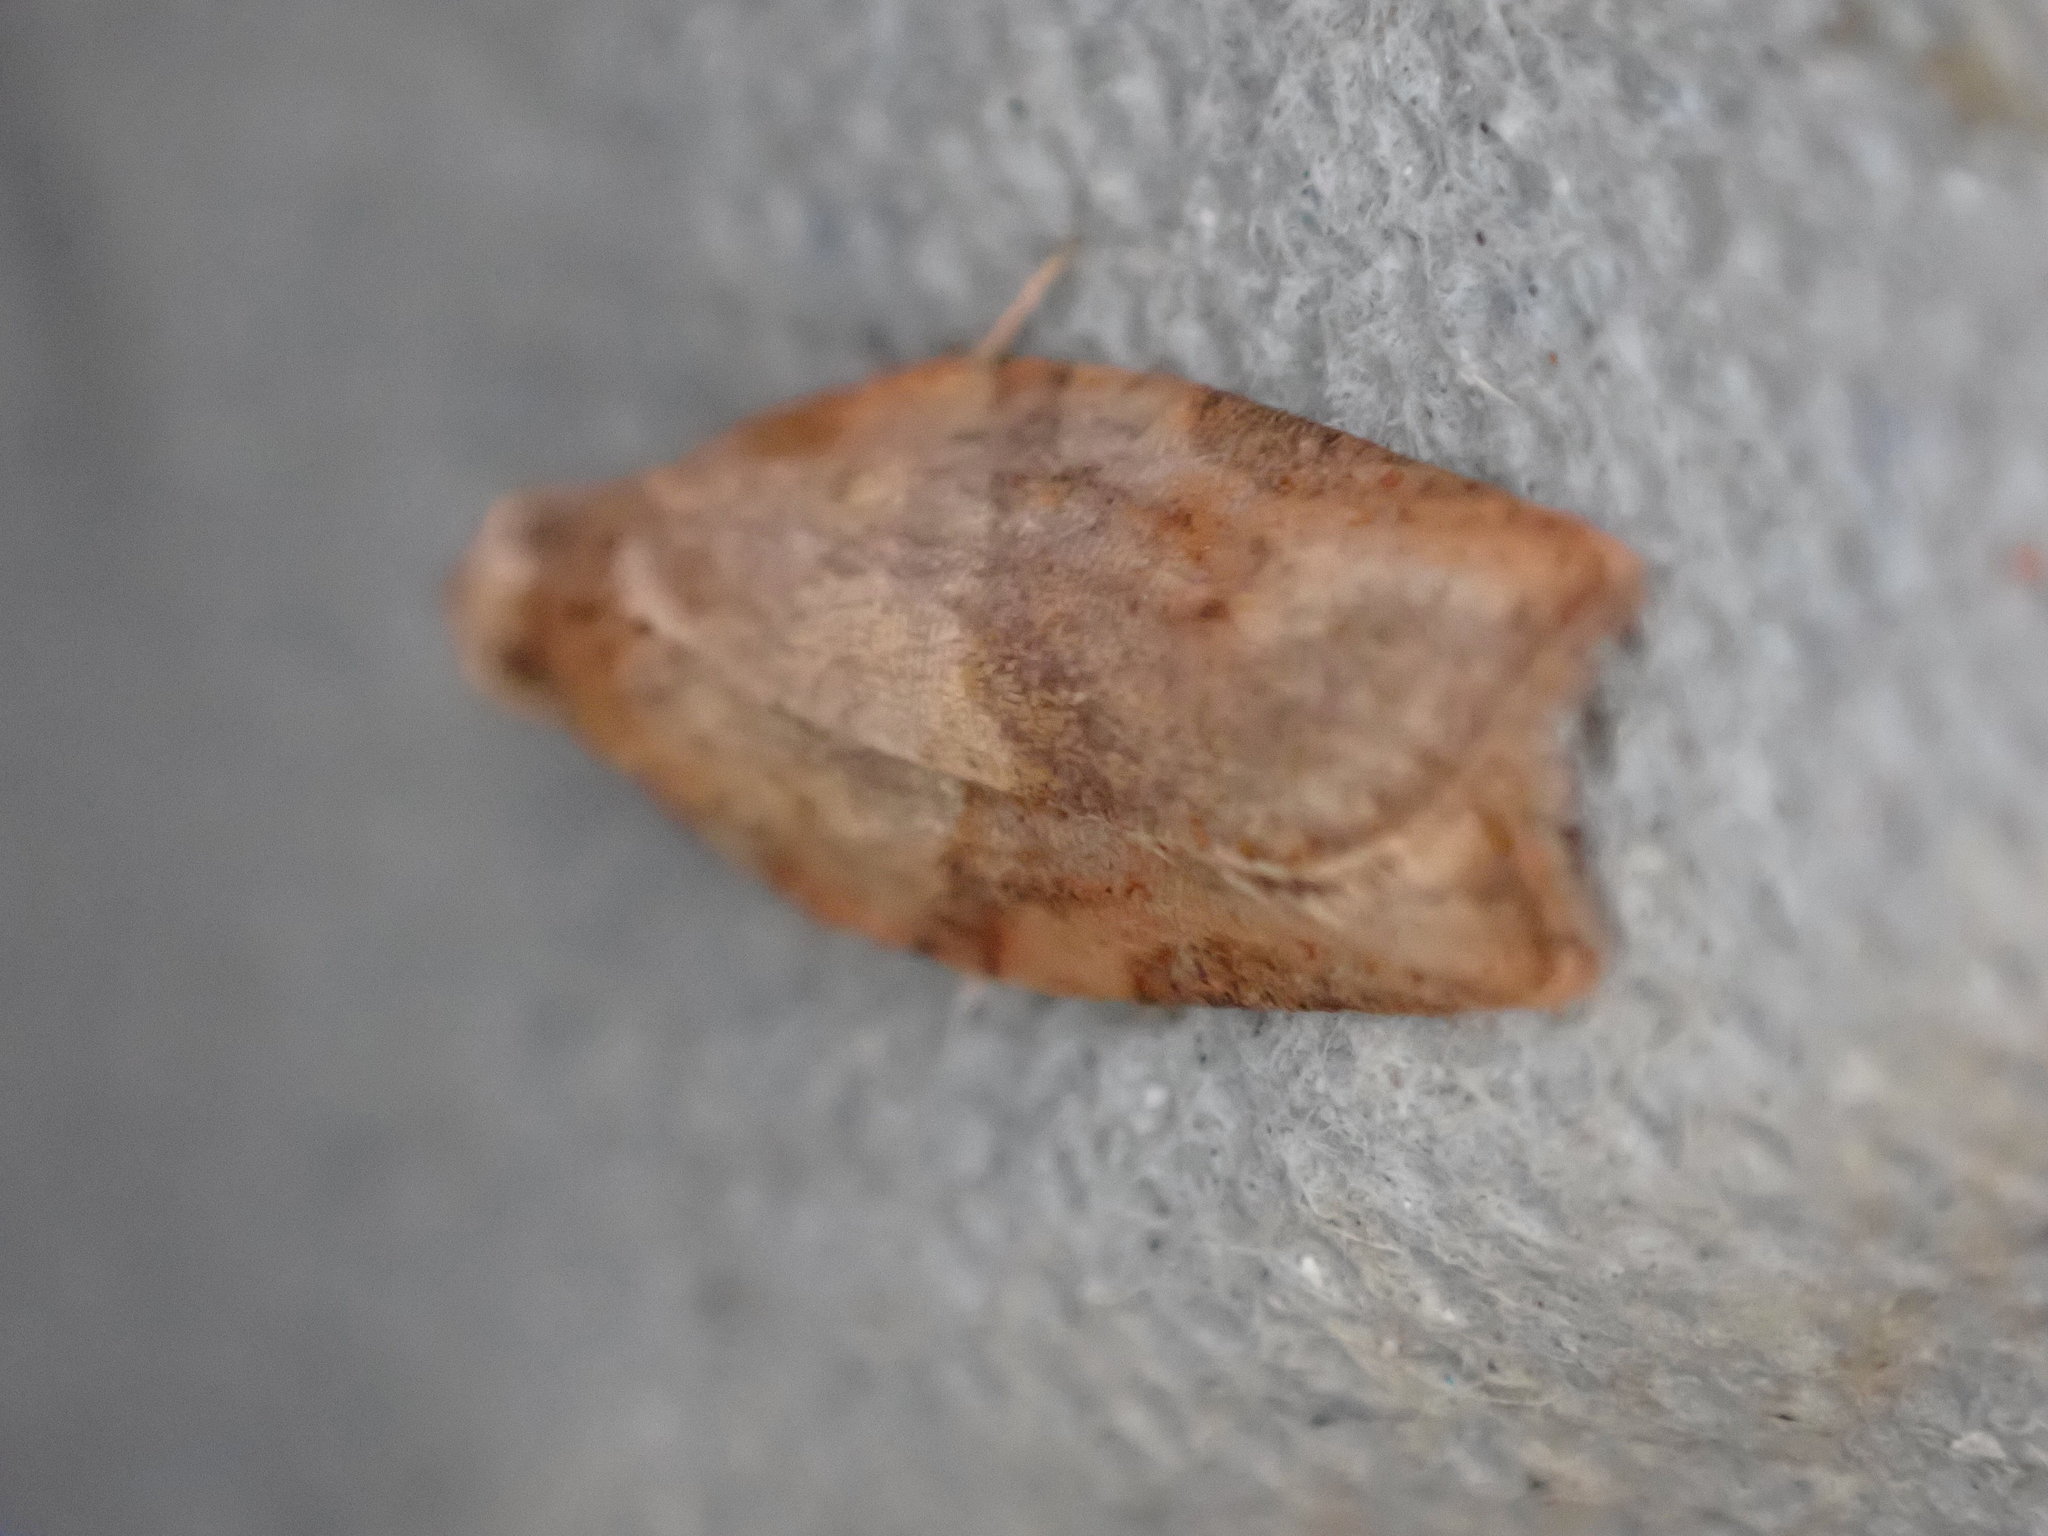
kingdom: Animalia
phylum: Arthropoda
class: Insecta
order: Lepidoptera
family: Tortricidae
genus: Epiphyas
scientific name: Epiphyas postvittana
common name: Light brown apple moth
